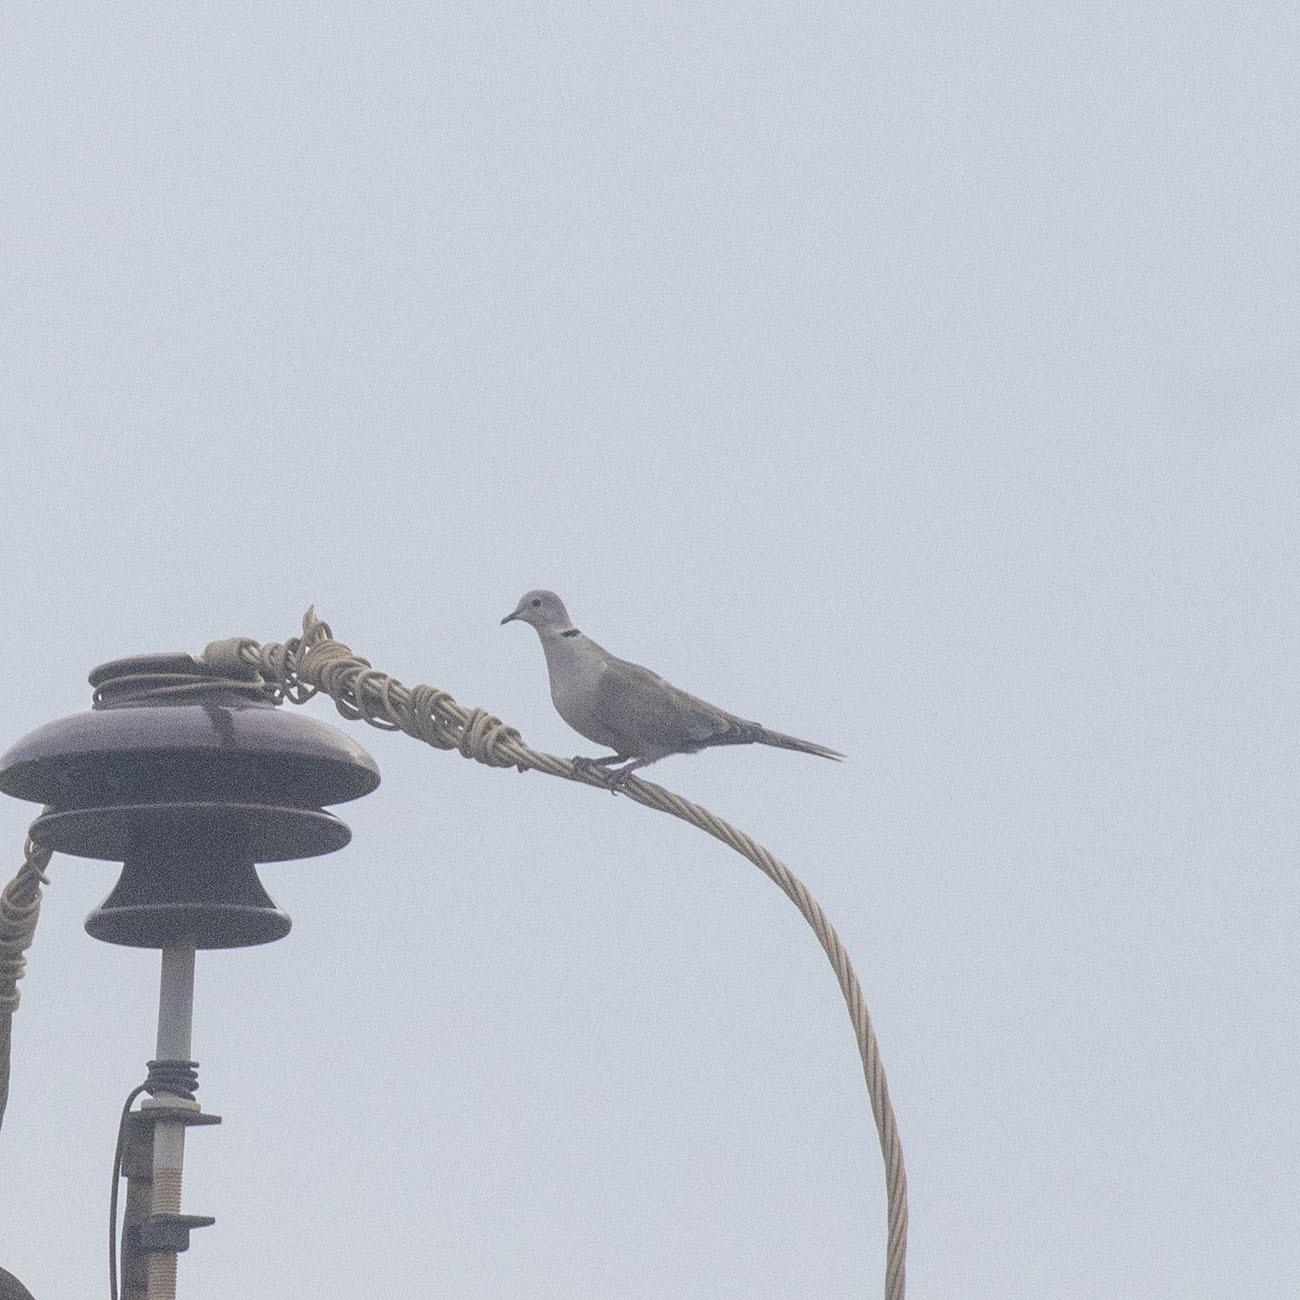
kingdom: Animalia
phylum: Chordata
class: Aves
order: Columbiformes
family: Columbidae
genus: Streptopelia
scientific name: Streptopelia decaocto
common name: Eurasian collared dove
